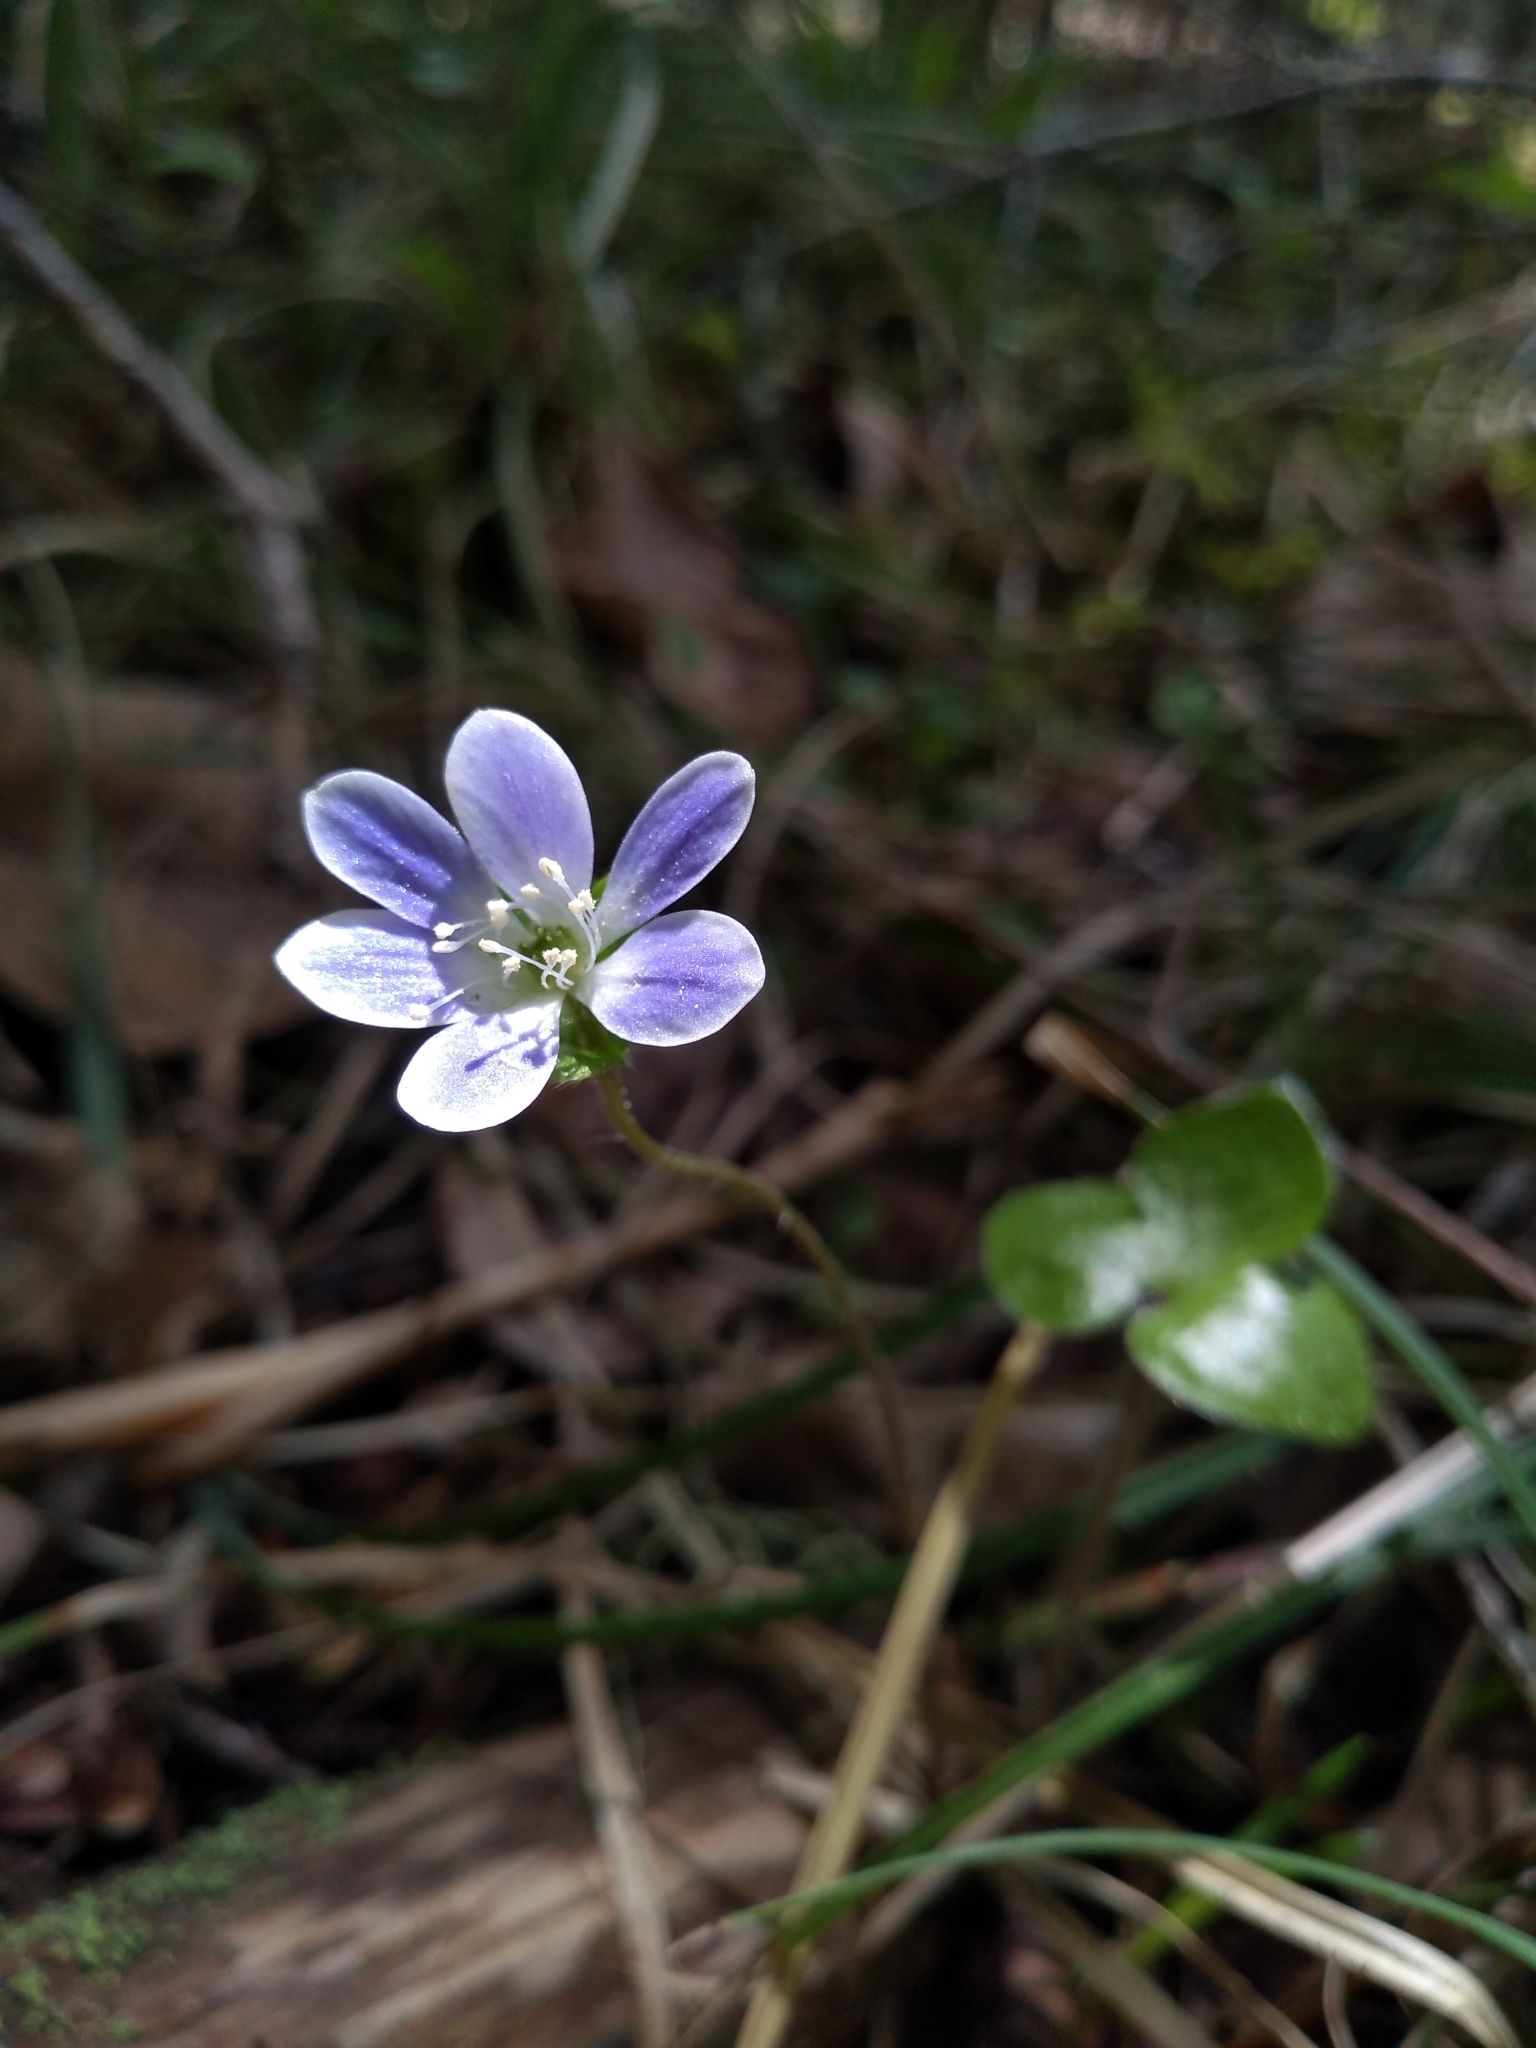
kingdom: Plantae
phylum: Tracheophyta
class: Magnoliopsida
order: Ranunculales
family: Ranunculaceae
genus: Hepatica
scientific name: Hepatica americana
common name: American hepatica
